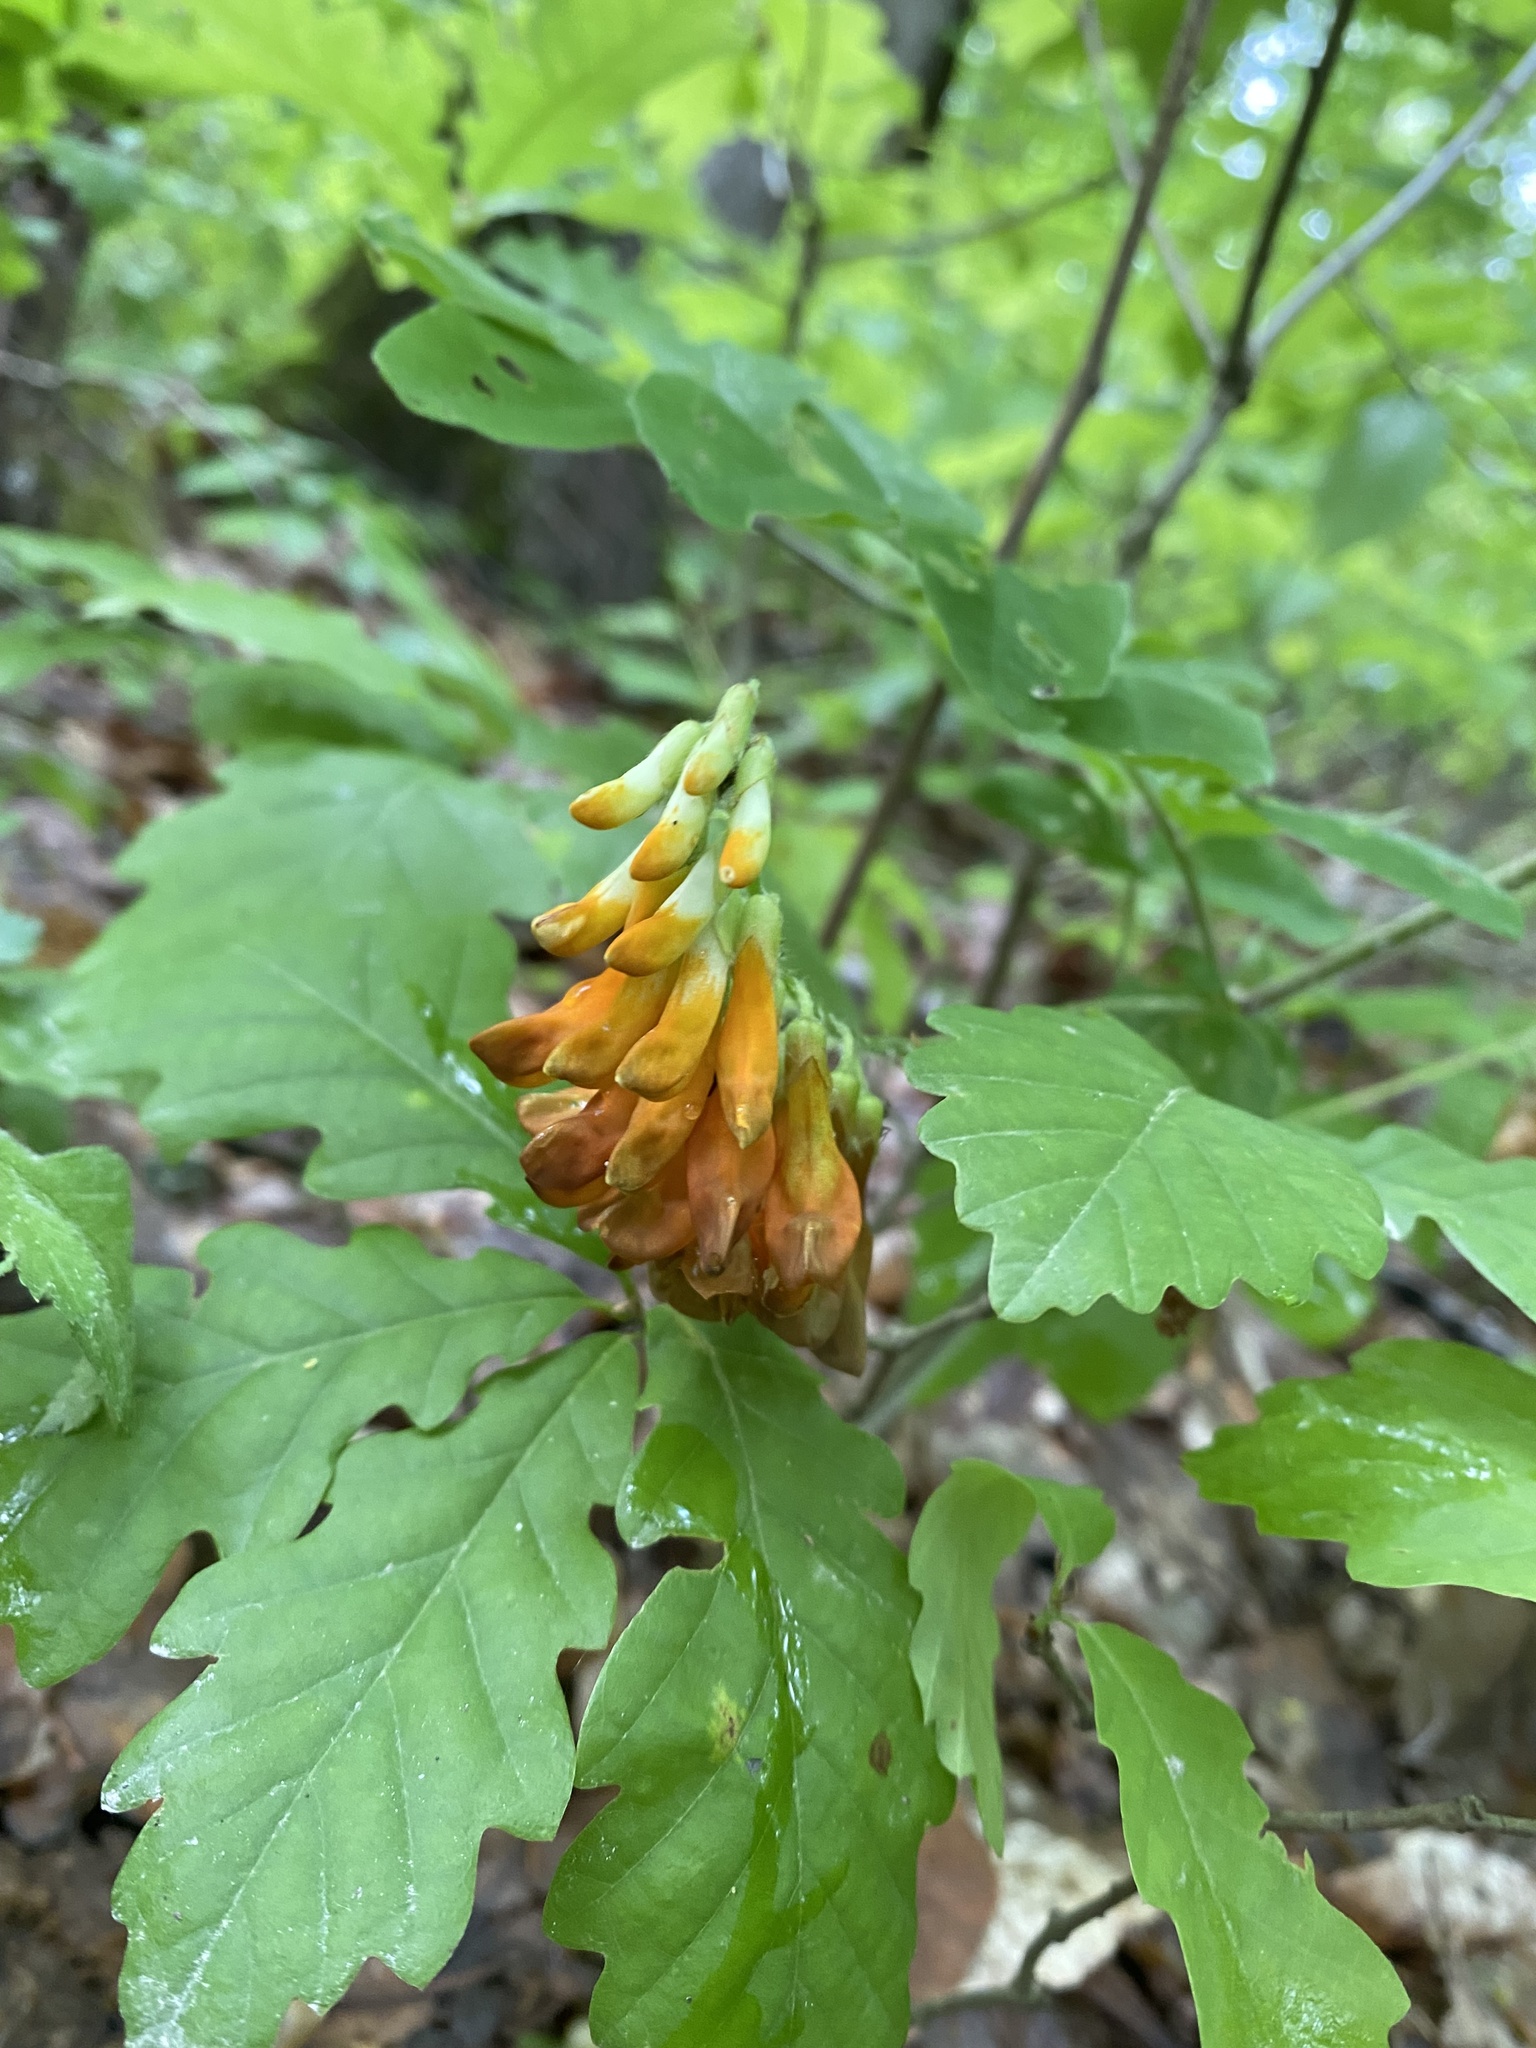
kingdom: Plantae
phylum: Tracheophyta
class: Magnoliopsida
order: Fabales
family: Fabaceae
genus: Vicia
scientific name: Vicia crocea
